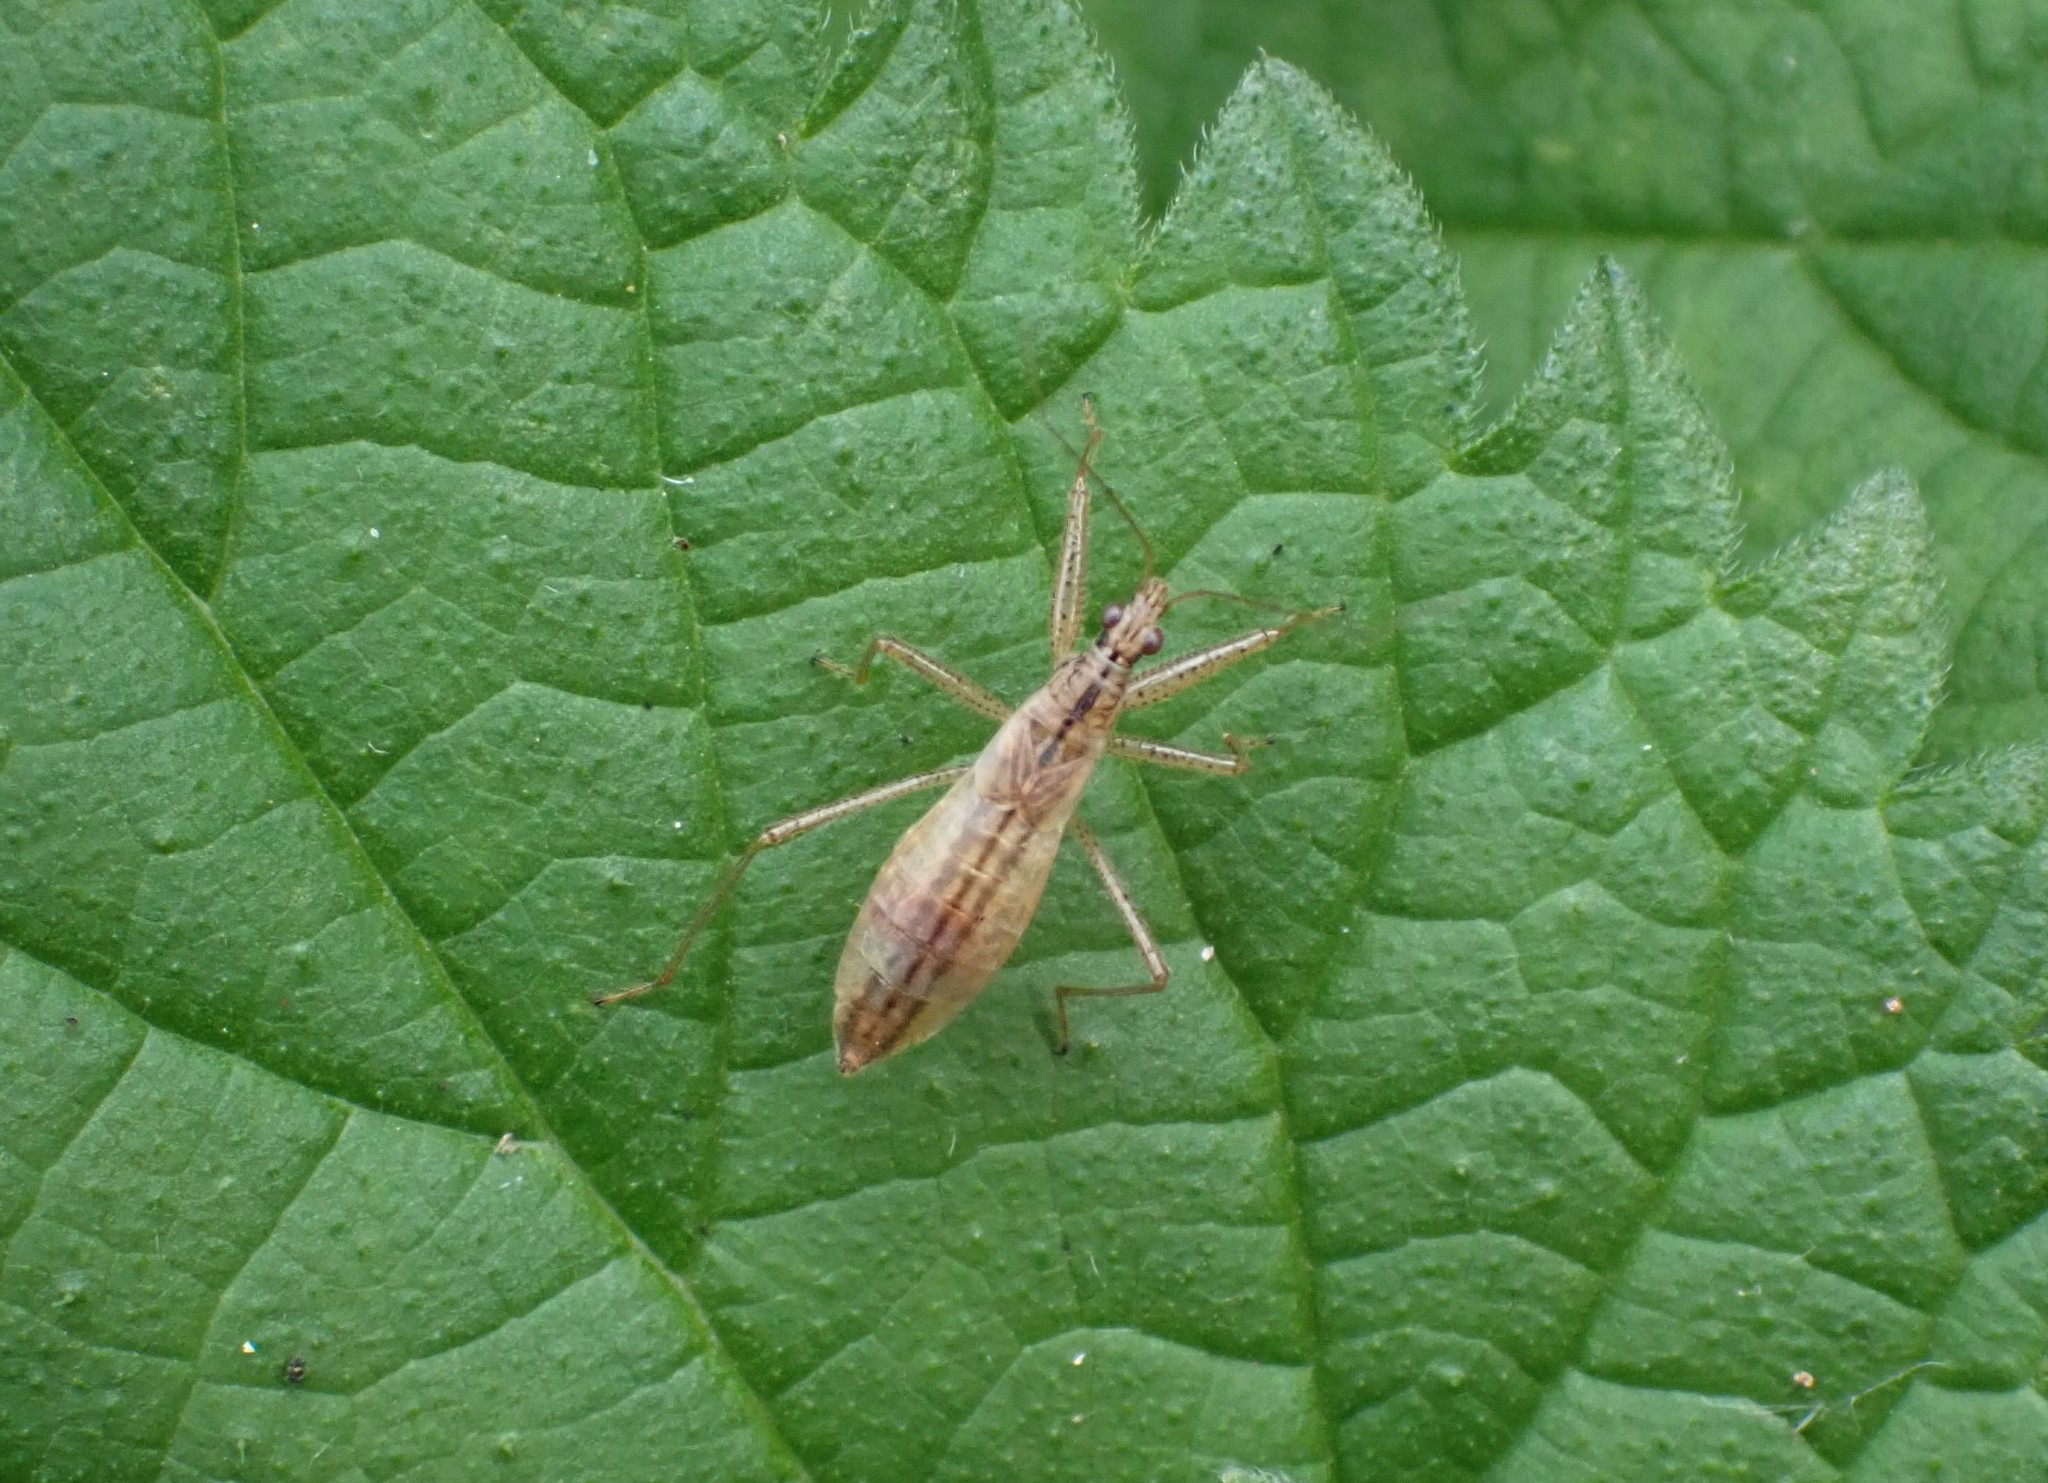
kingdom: Animalia
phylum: Arthropoda
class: Insecta
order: Hemiptera
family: Nabidae
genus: Nabis
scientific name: Nabis limbatus
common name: Marsh damselbug
